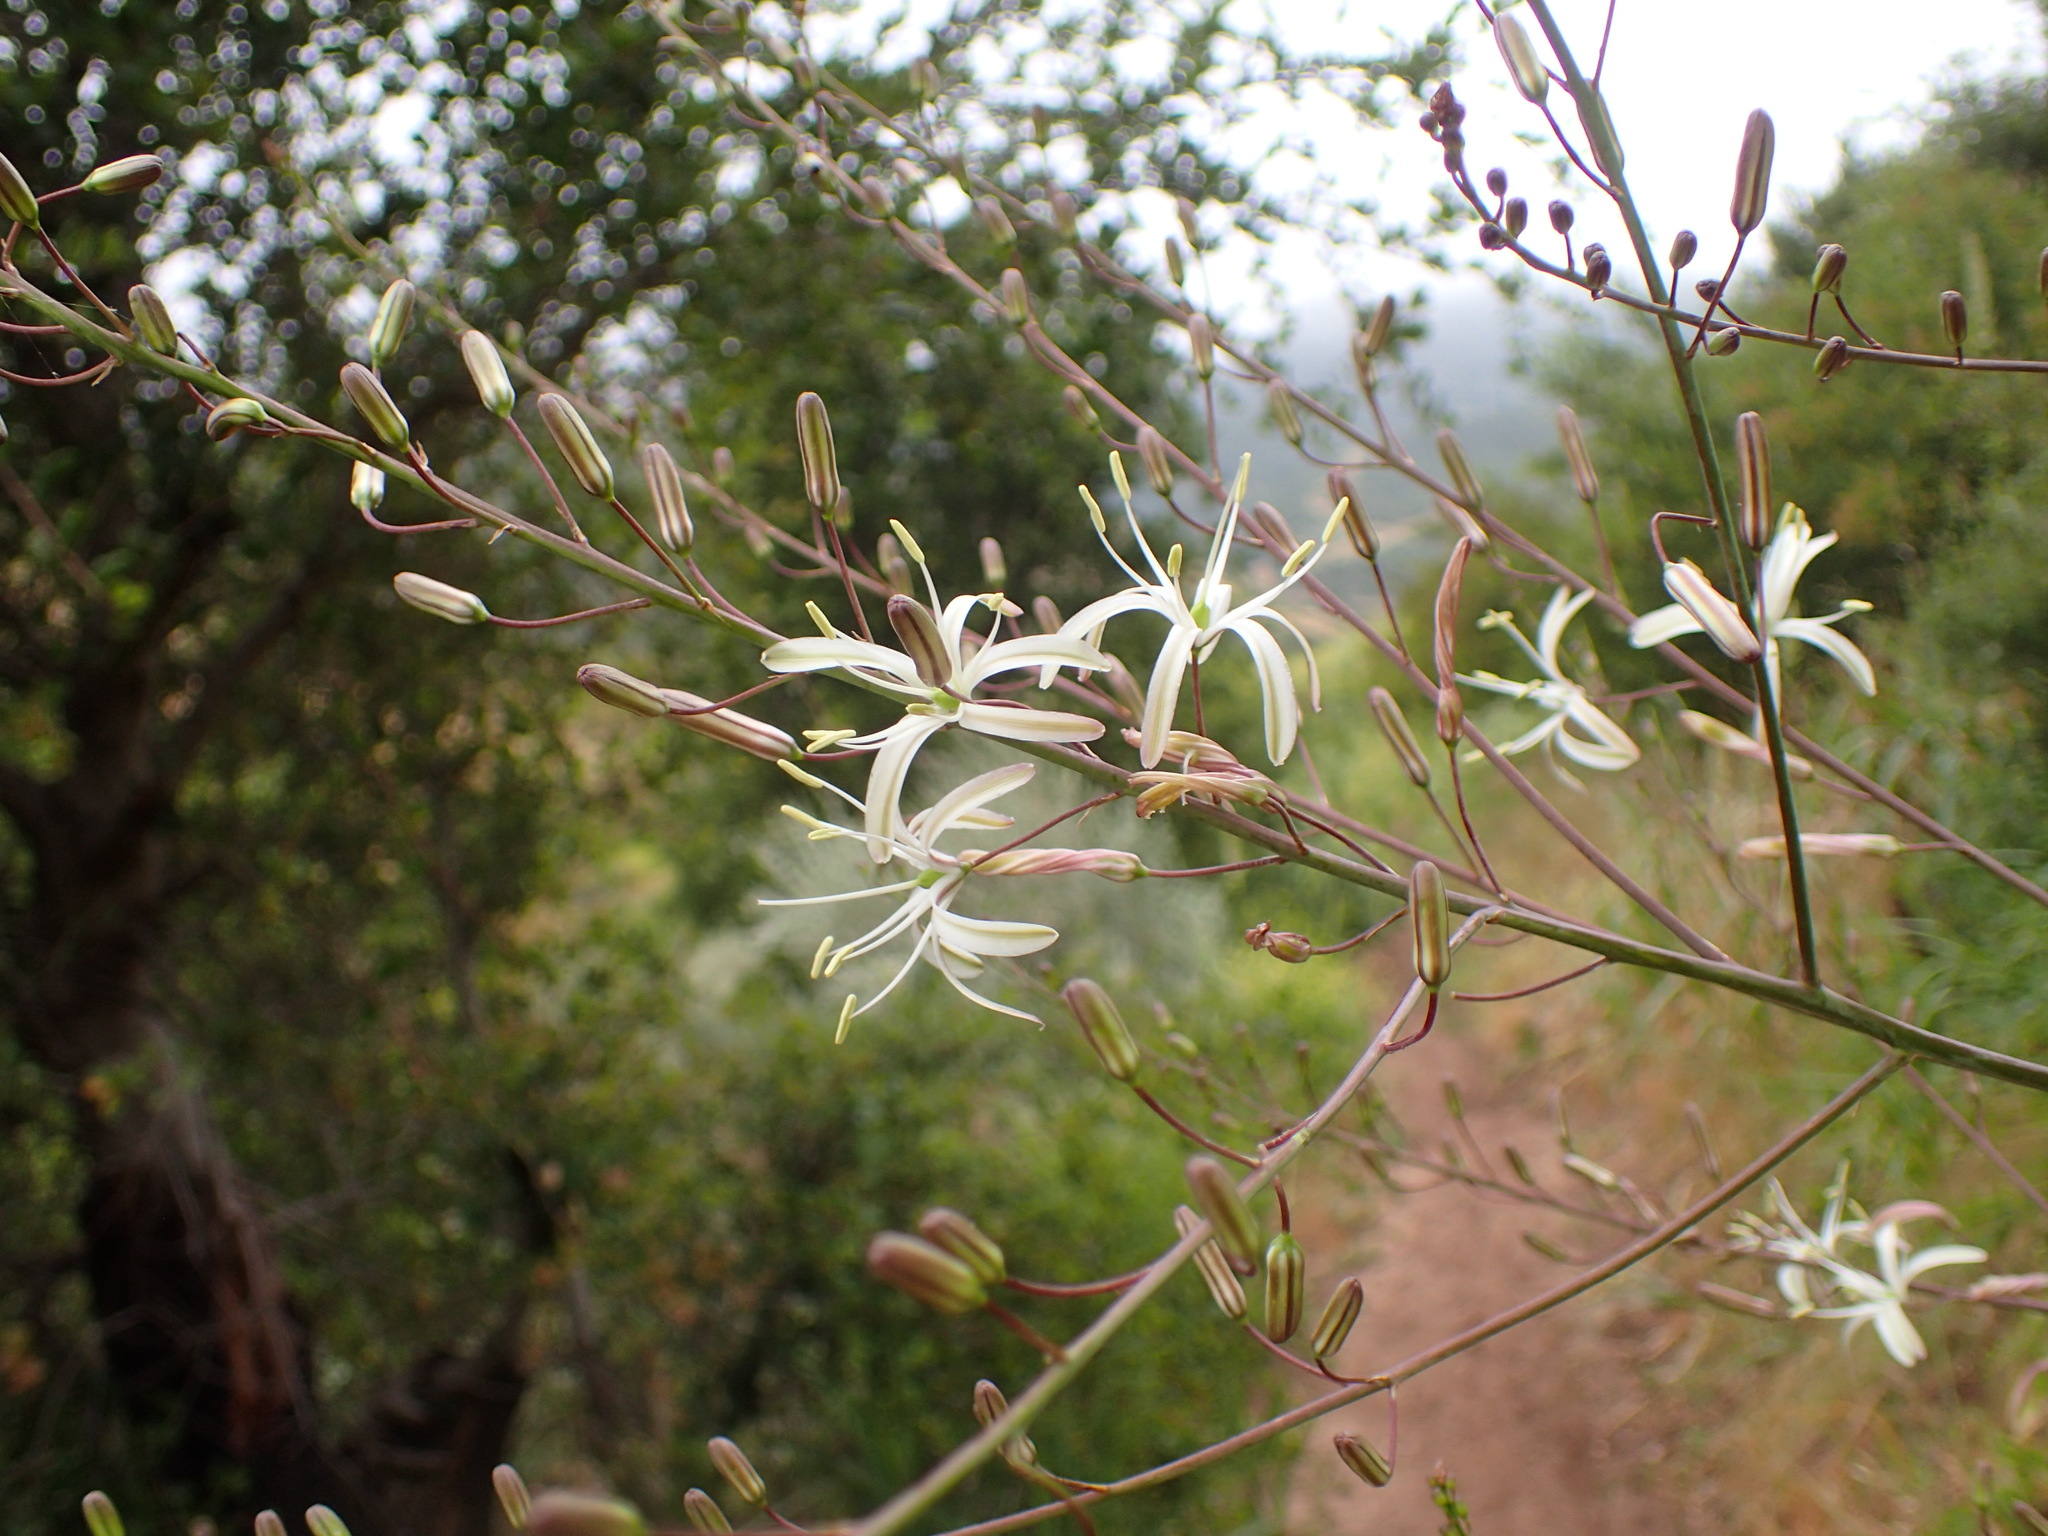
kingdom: Plantae
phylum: Tracheophyta
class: Liliopsida
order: Asparagales
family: Asparagaceae
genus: Chlorogalum
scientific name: Chlorogalum pomeridianum
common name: Amole
